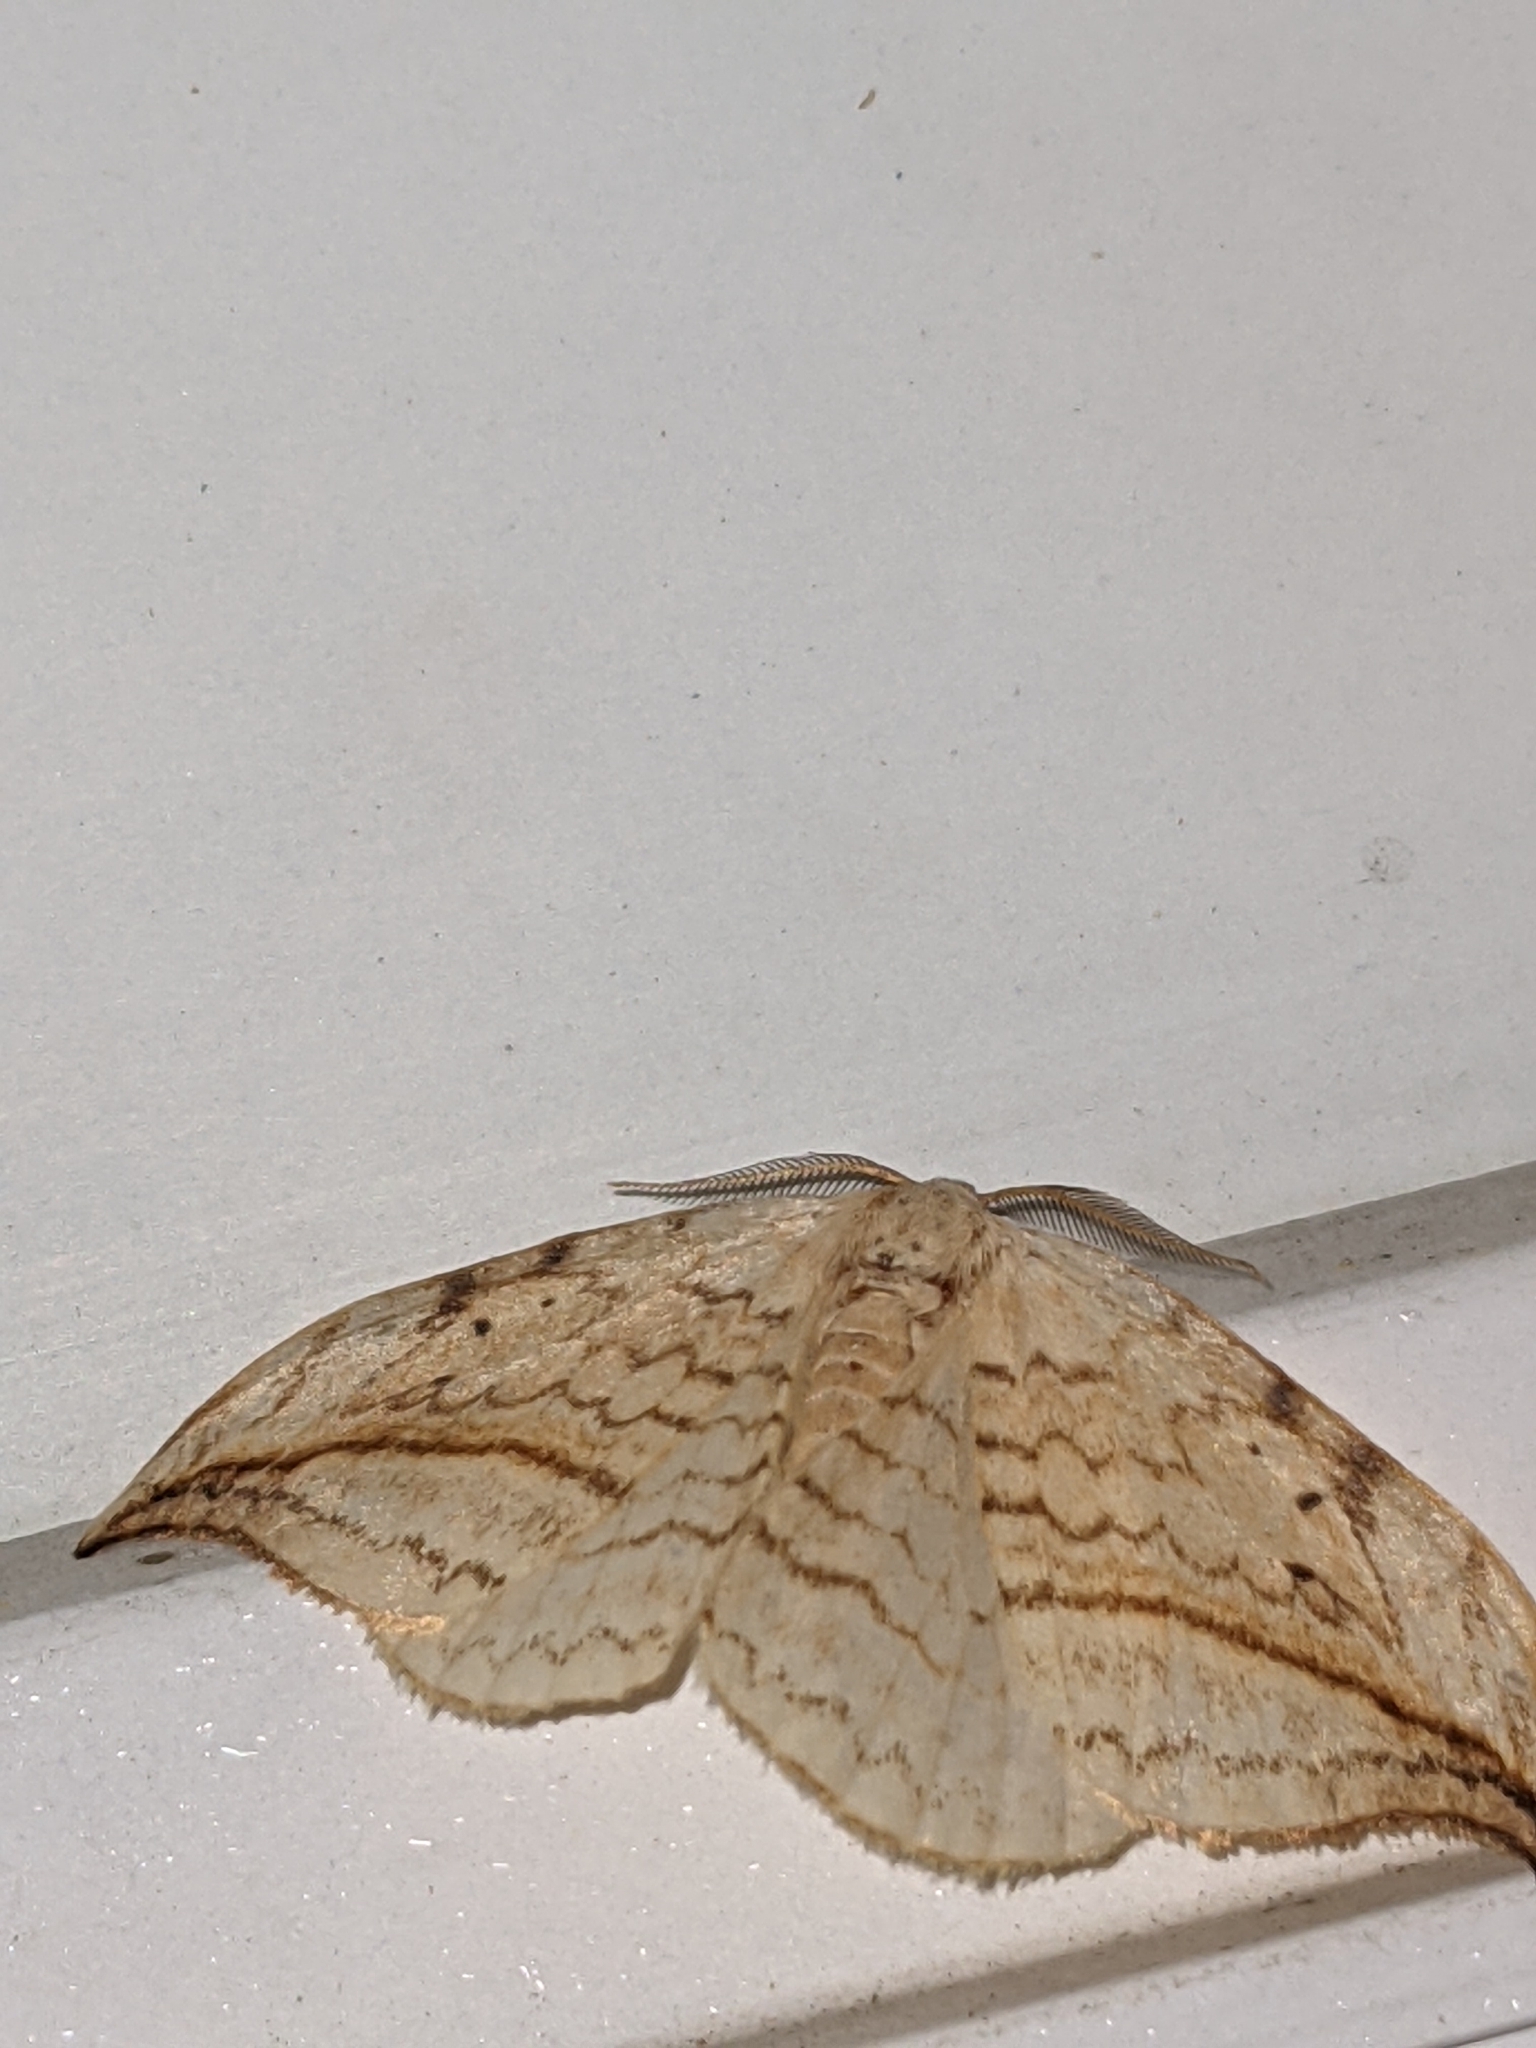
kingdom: Animalia
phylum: Arthropoda
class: Insecta
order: Lepidoptera
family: Drepanidae
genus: Drepana
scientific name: Drepana arcuata
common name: Arched hooktip moth
